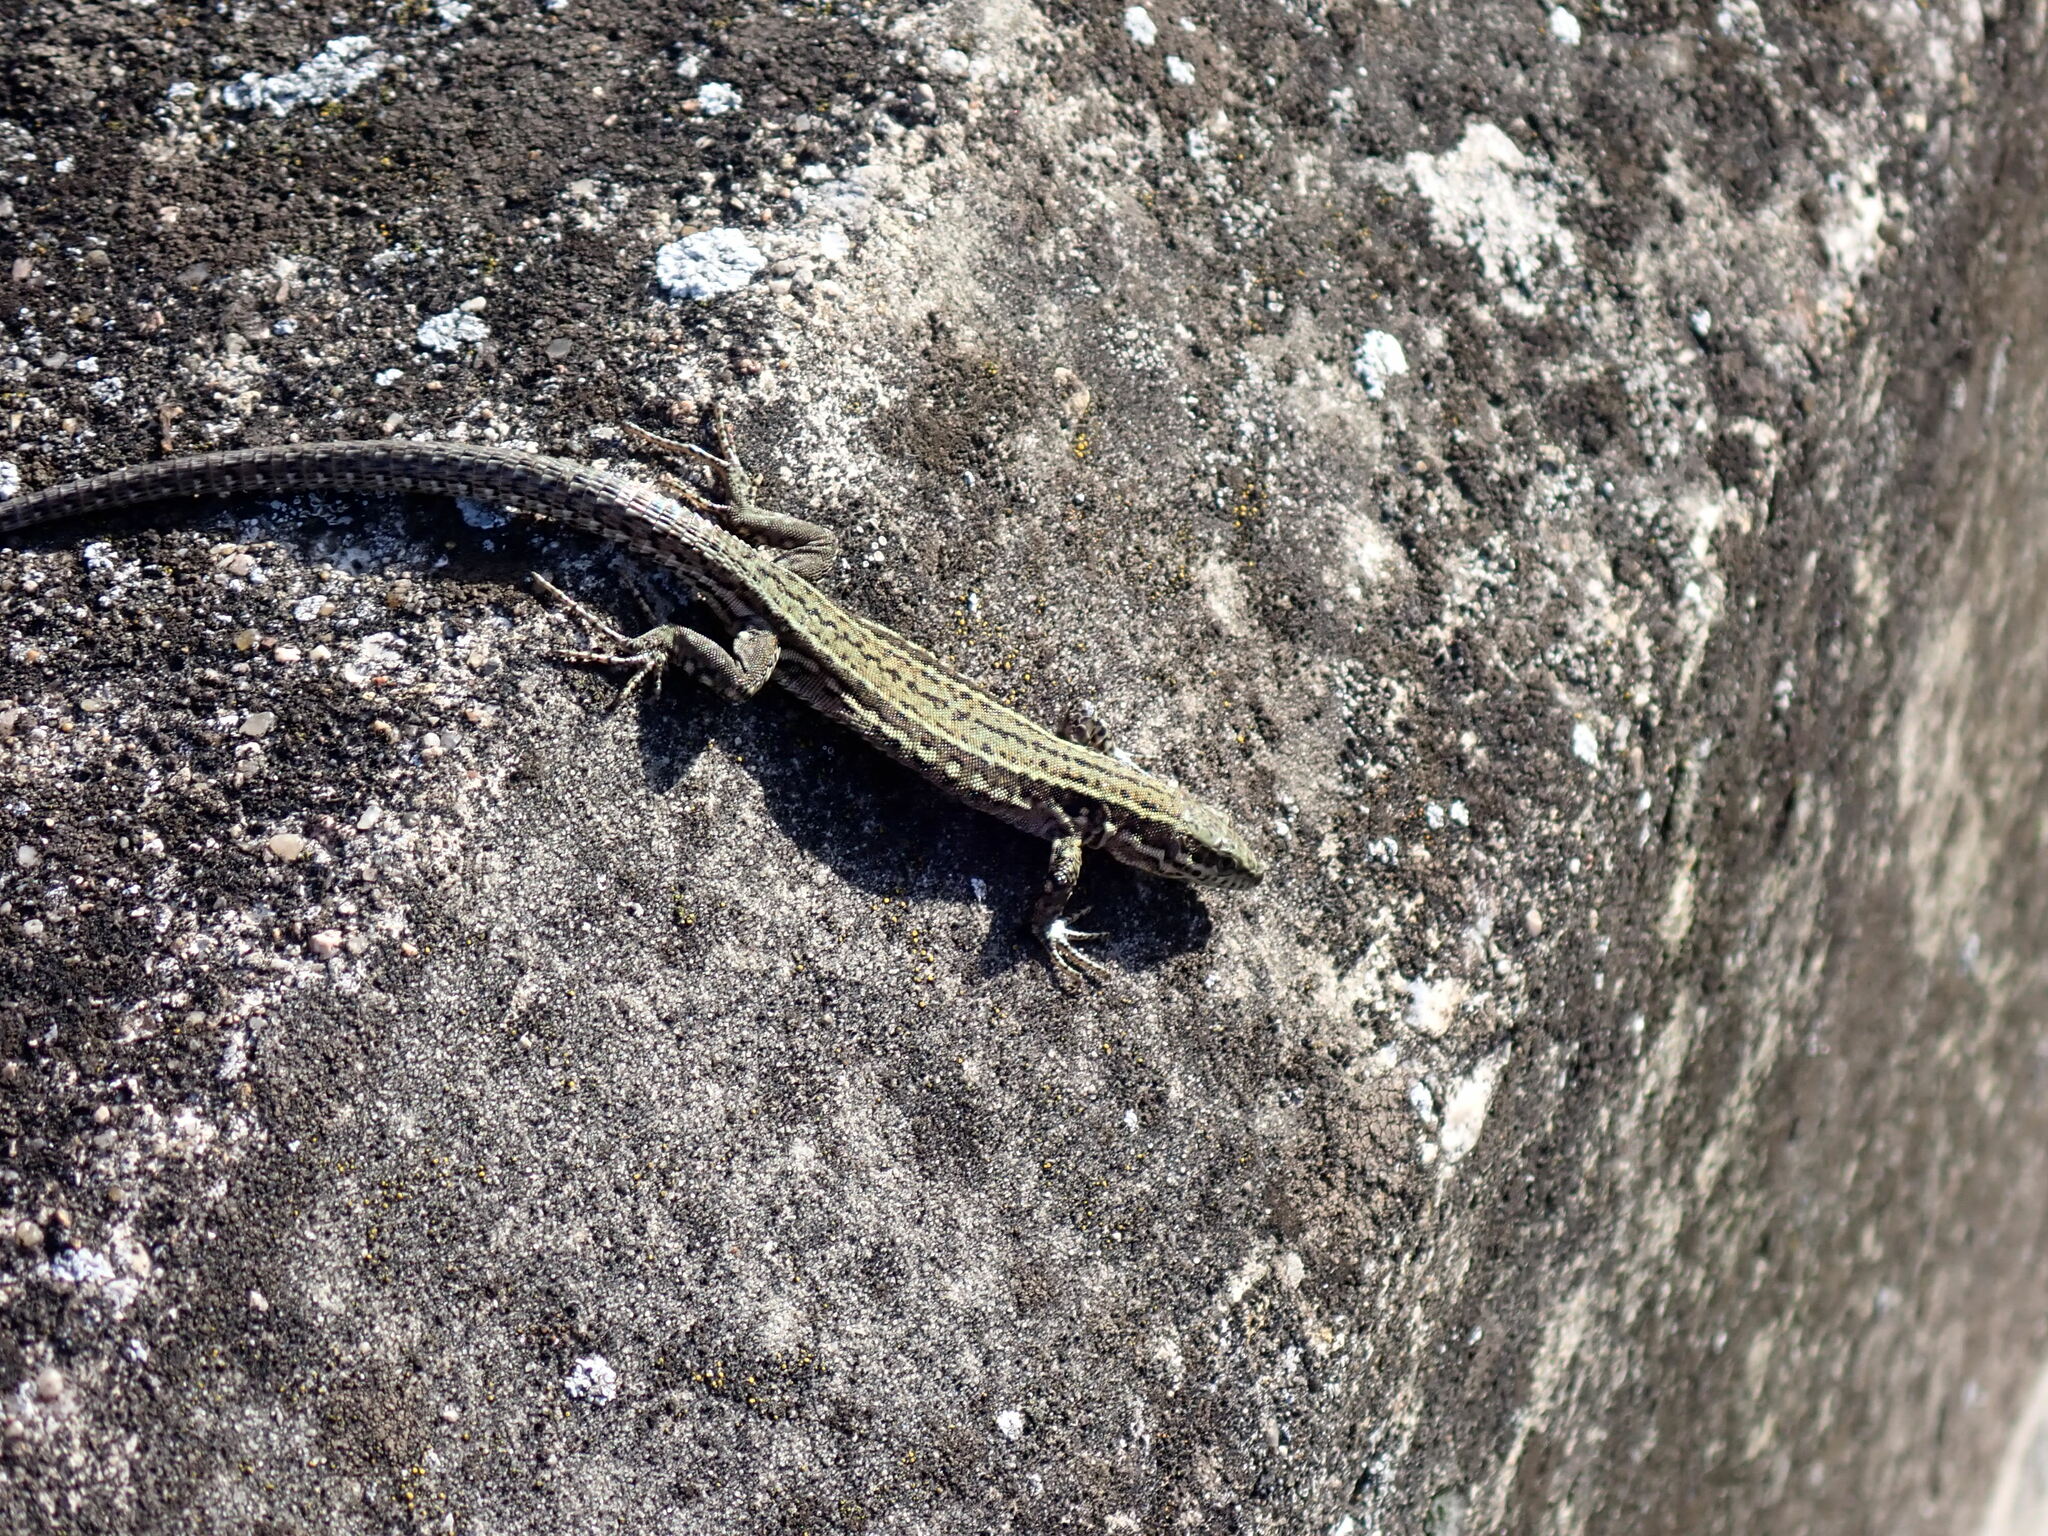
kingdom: Animalia
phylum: Chordata
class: Squamata
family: Lacertidae
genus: Podarcis
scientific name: Podarcis muralis
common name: Common wall lizard
